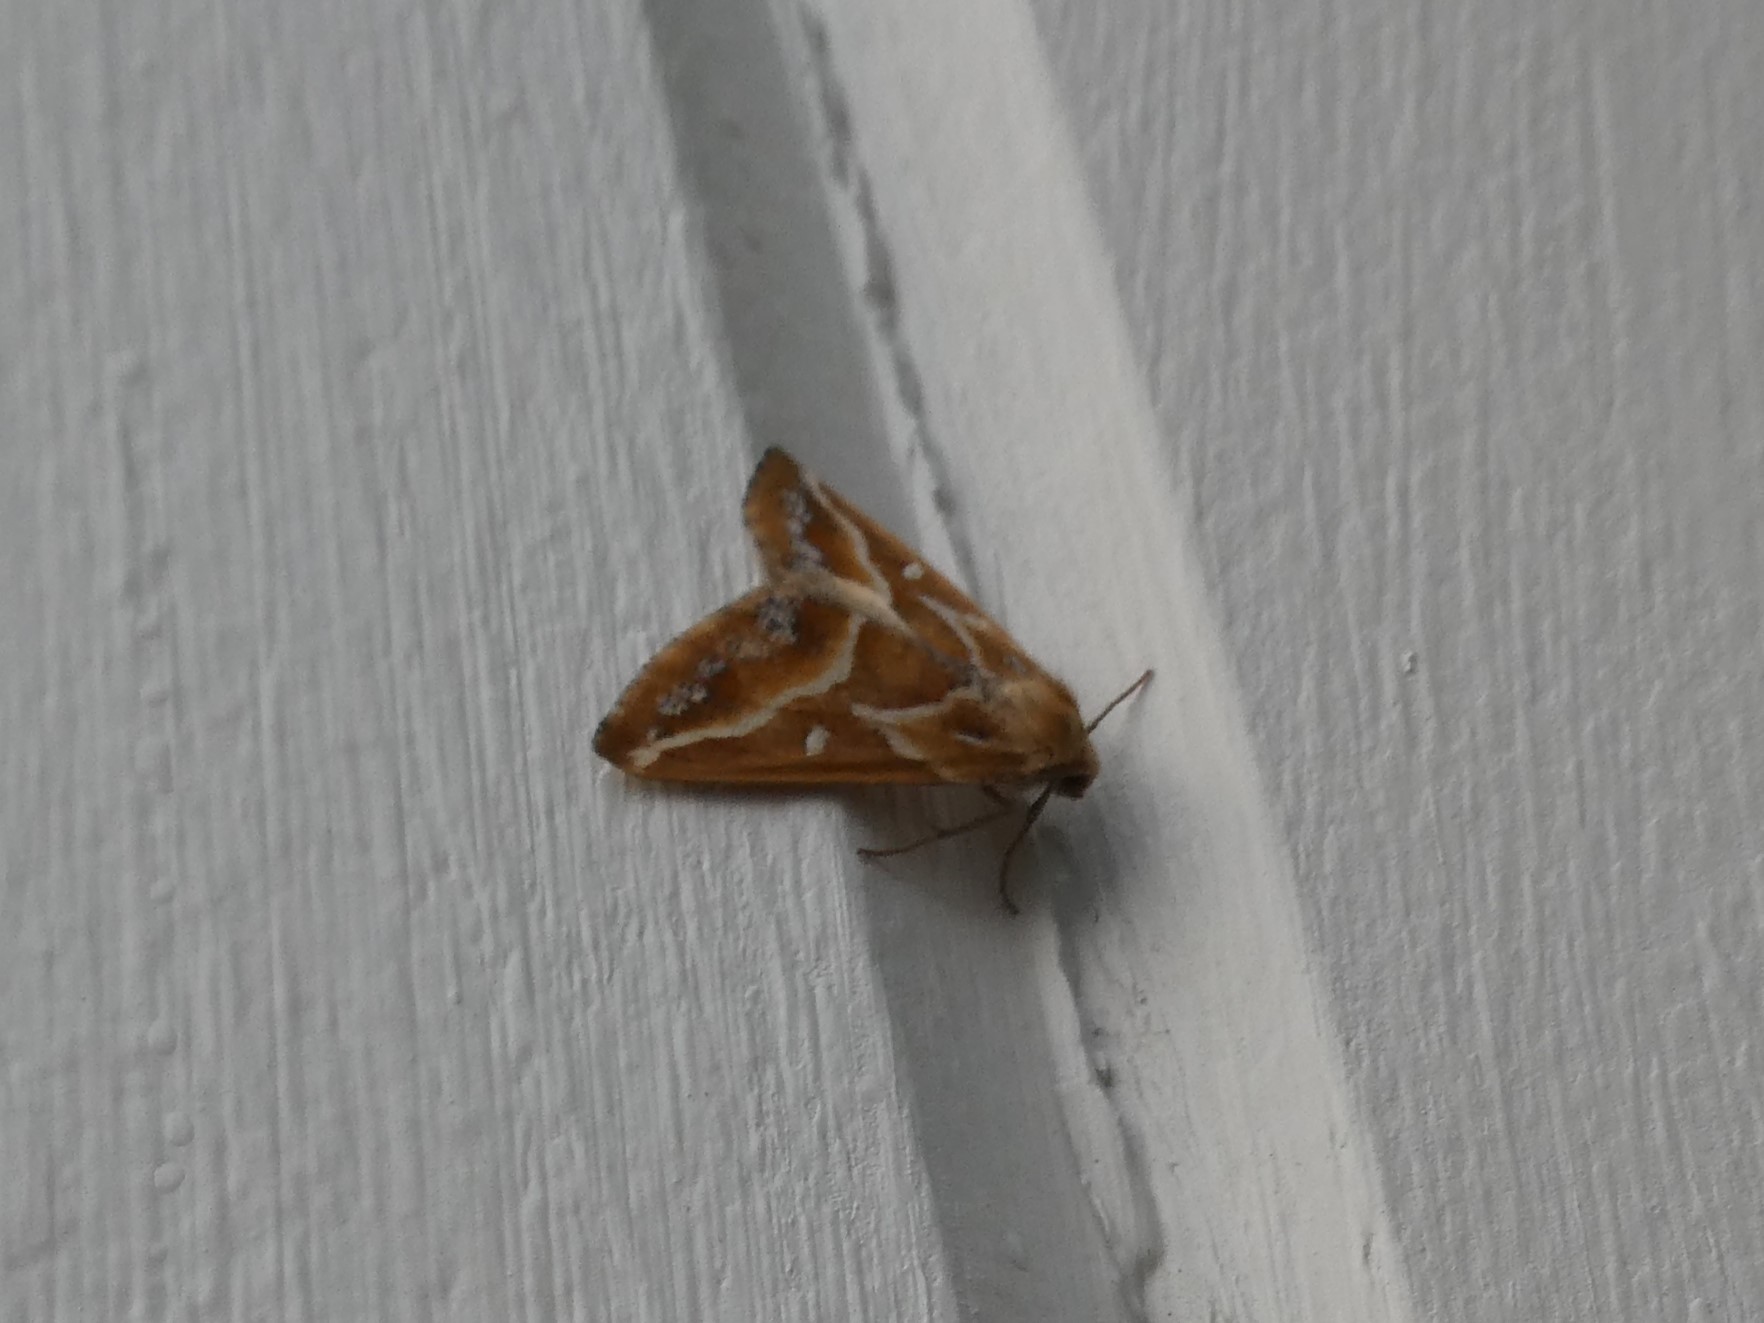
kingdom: Animalia
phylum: Arthropoda
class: Insecta
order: Lepidoptera
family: Geometridae
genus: Caripeta
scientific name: Caripeta angustiorata
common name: Brown pine looper
